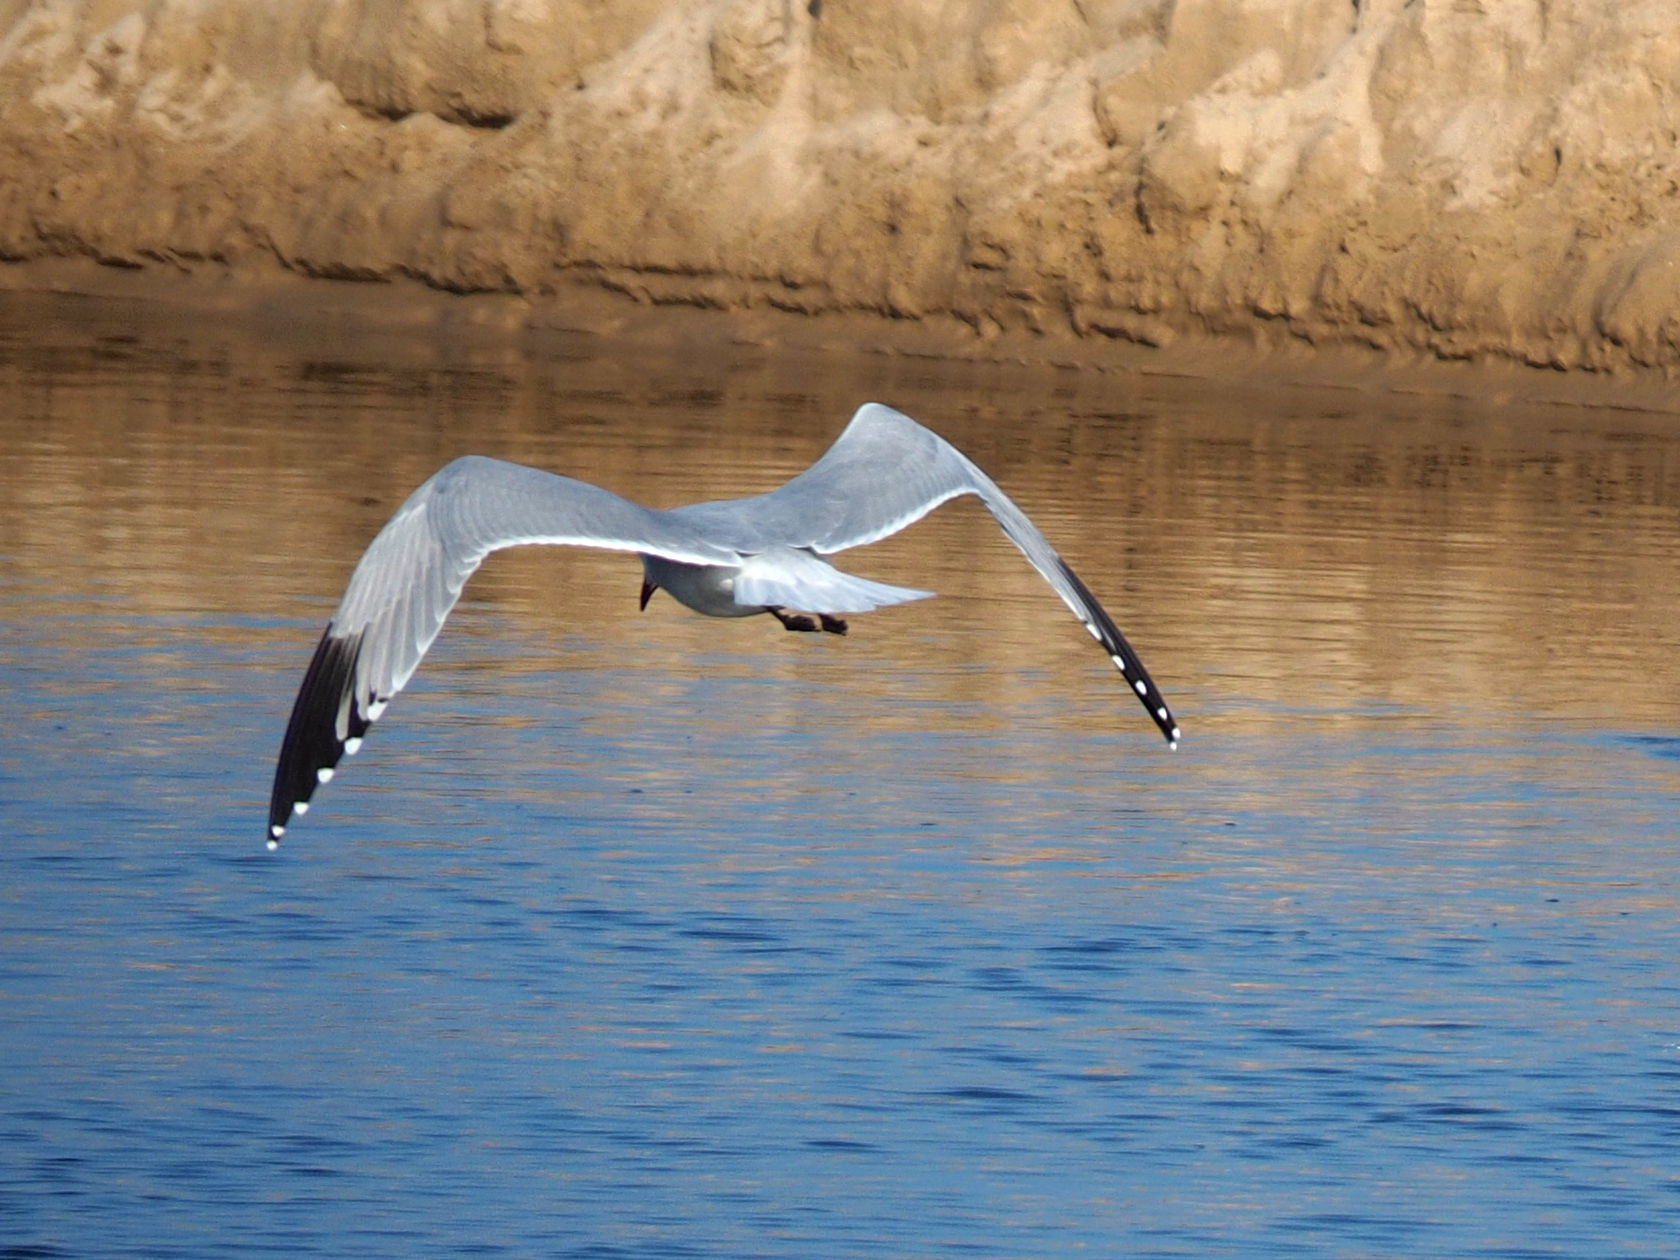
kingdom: Animalia
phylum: Chordata
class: Aves
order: Charadriiformes
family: Laridae
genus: Ichthyaetus
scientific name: Ichthyaetus audouinii
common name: Audouin's gull
